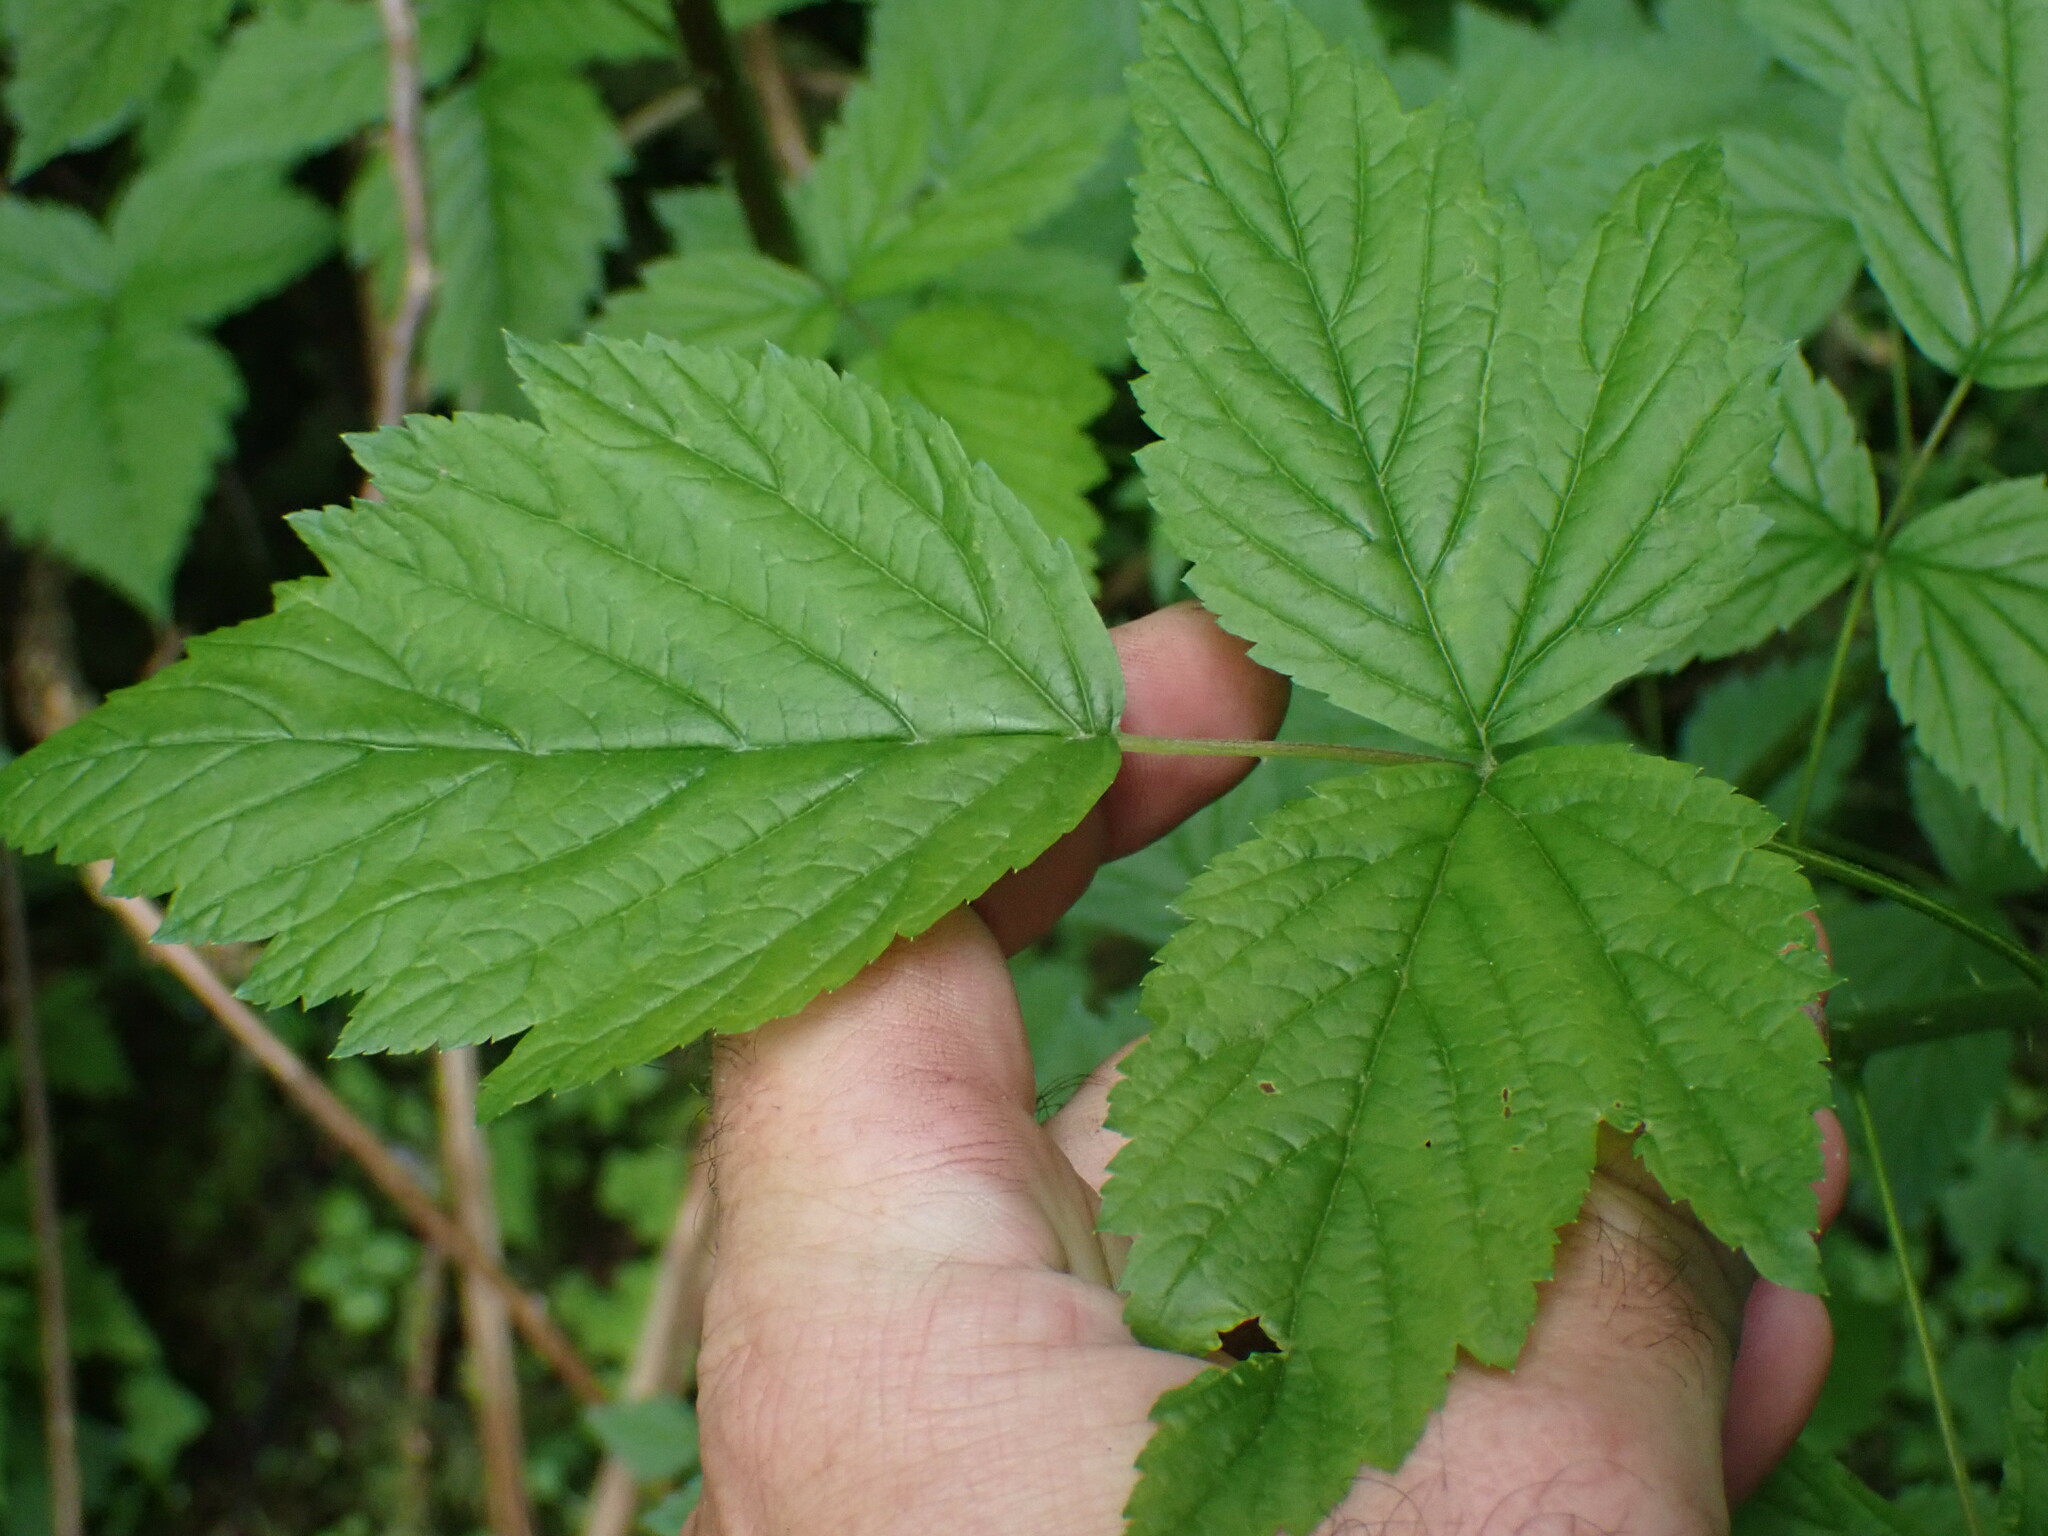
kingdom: Plantae
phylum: Tracheophyta
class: Magnoliopsida
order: Rosales
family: Rosaceae
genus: Rubus
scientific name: Rubus spectabilis
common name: Salmonberry
